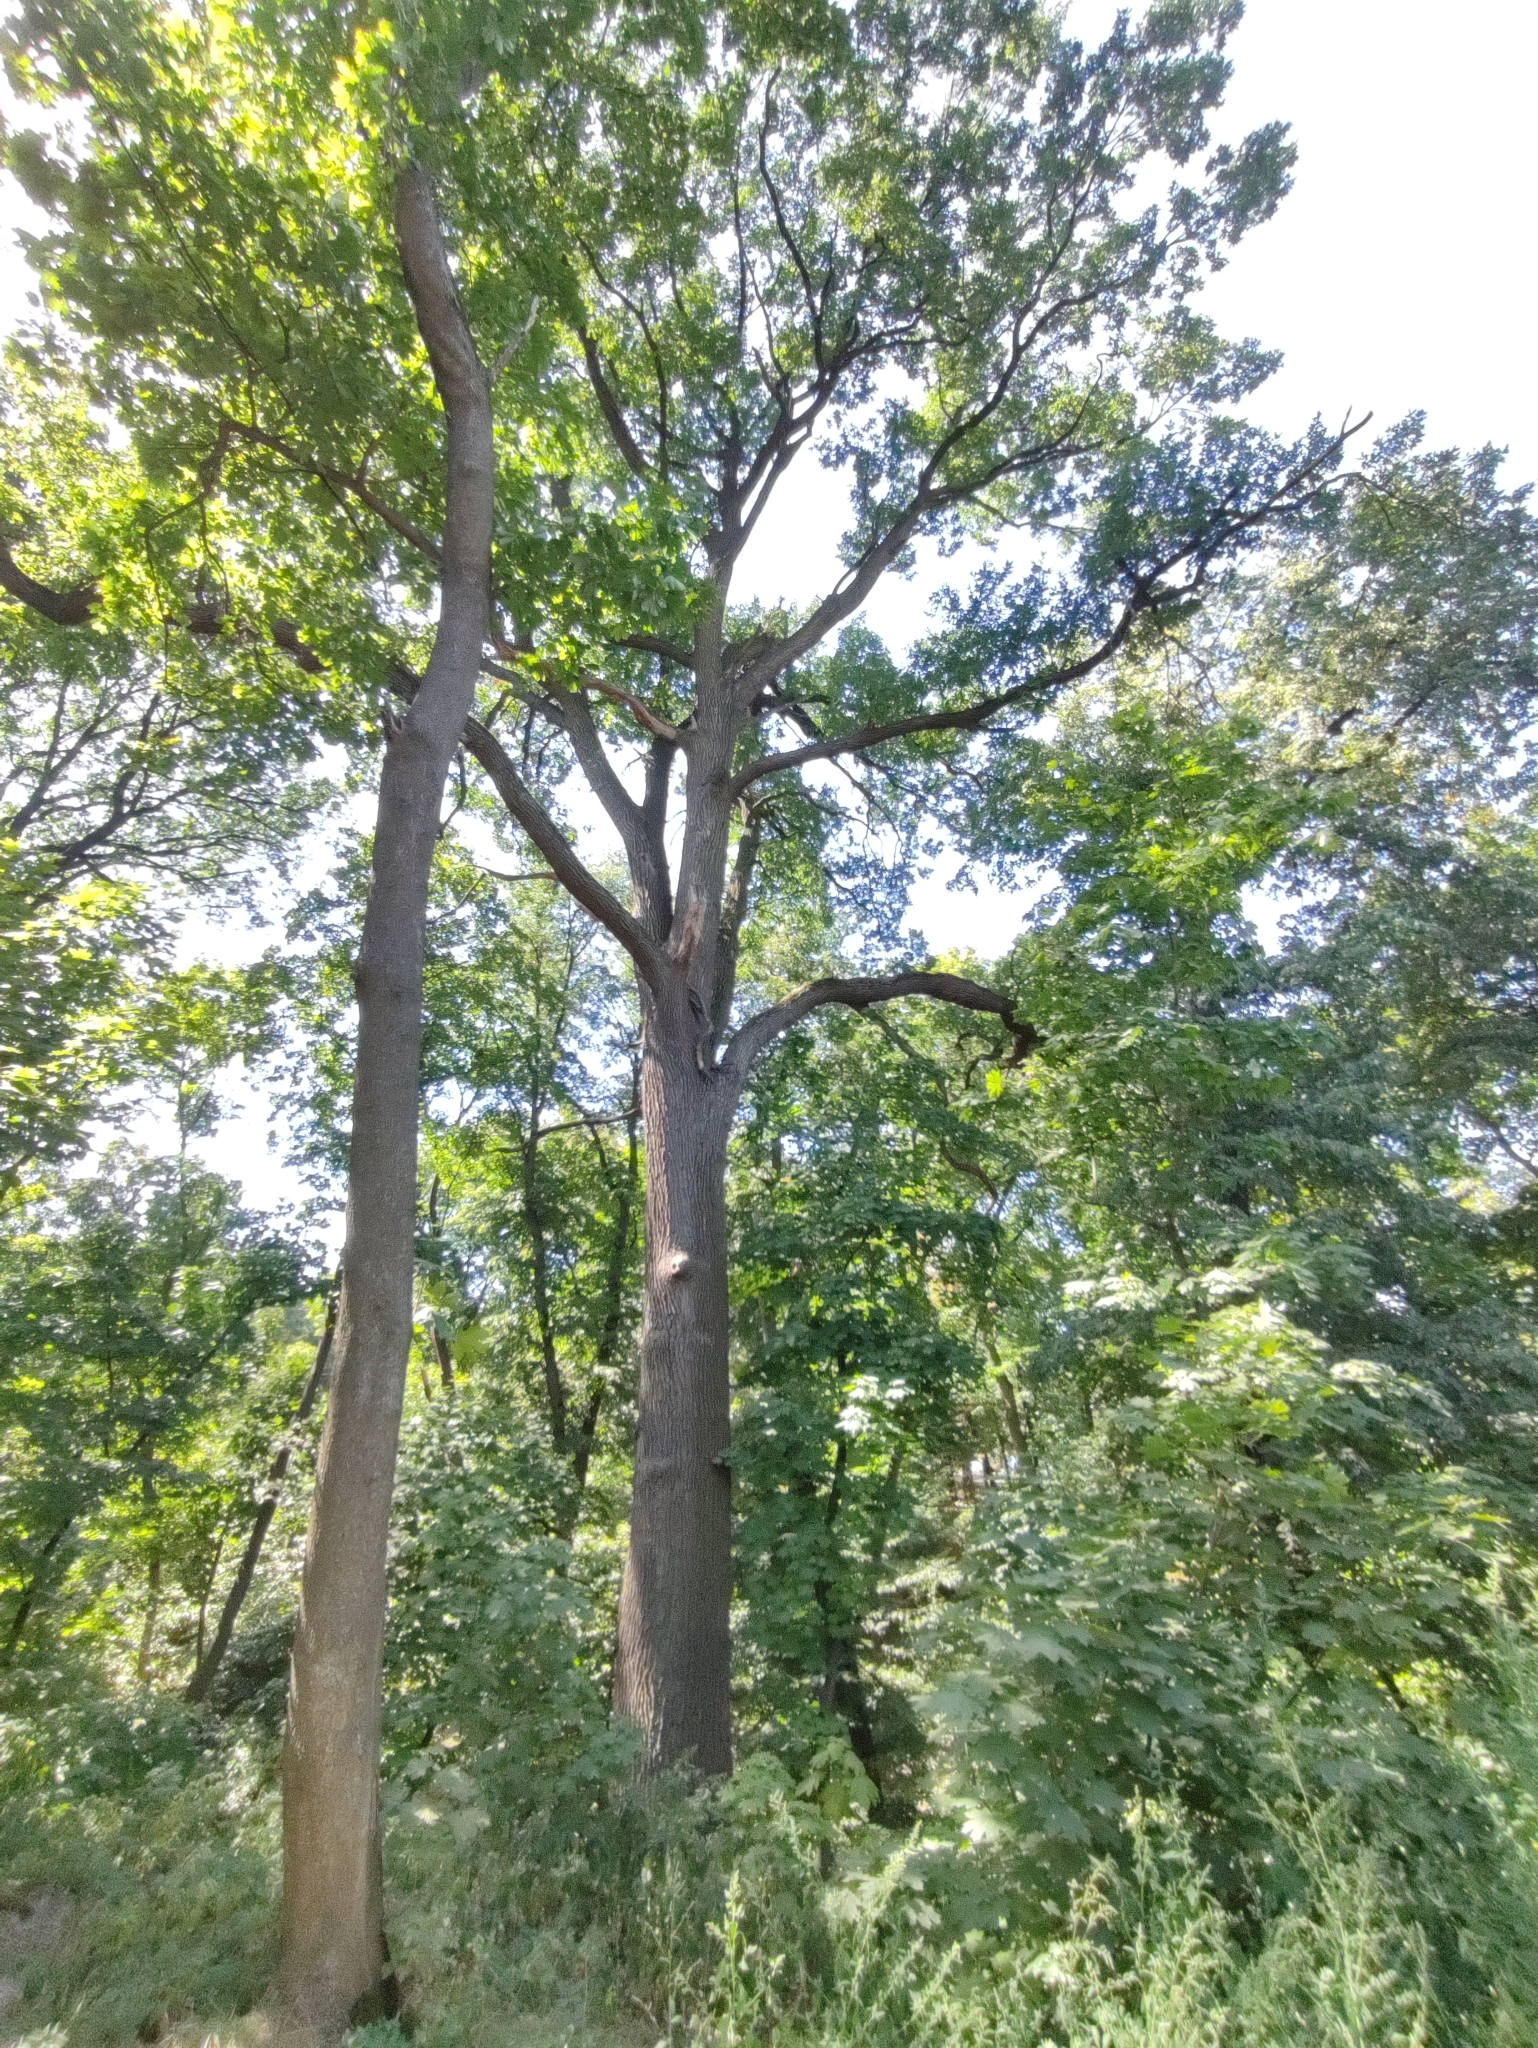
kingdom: Plantae
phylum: Tracheophyta
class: Magnoliopsida
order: Fagales
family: Fagaceae
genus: Quercus
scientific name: Quercus robur
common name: Pedunculate oak
